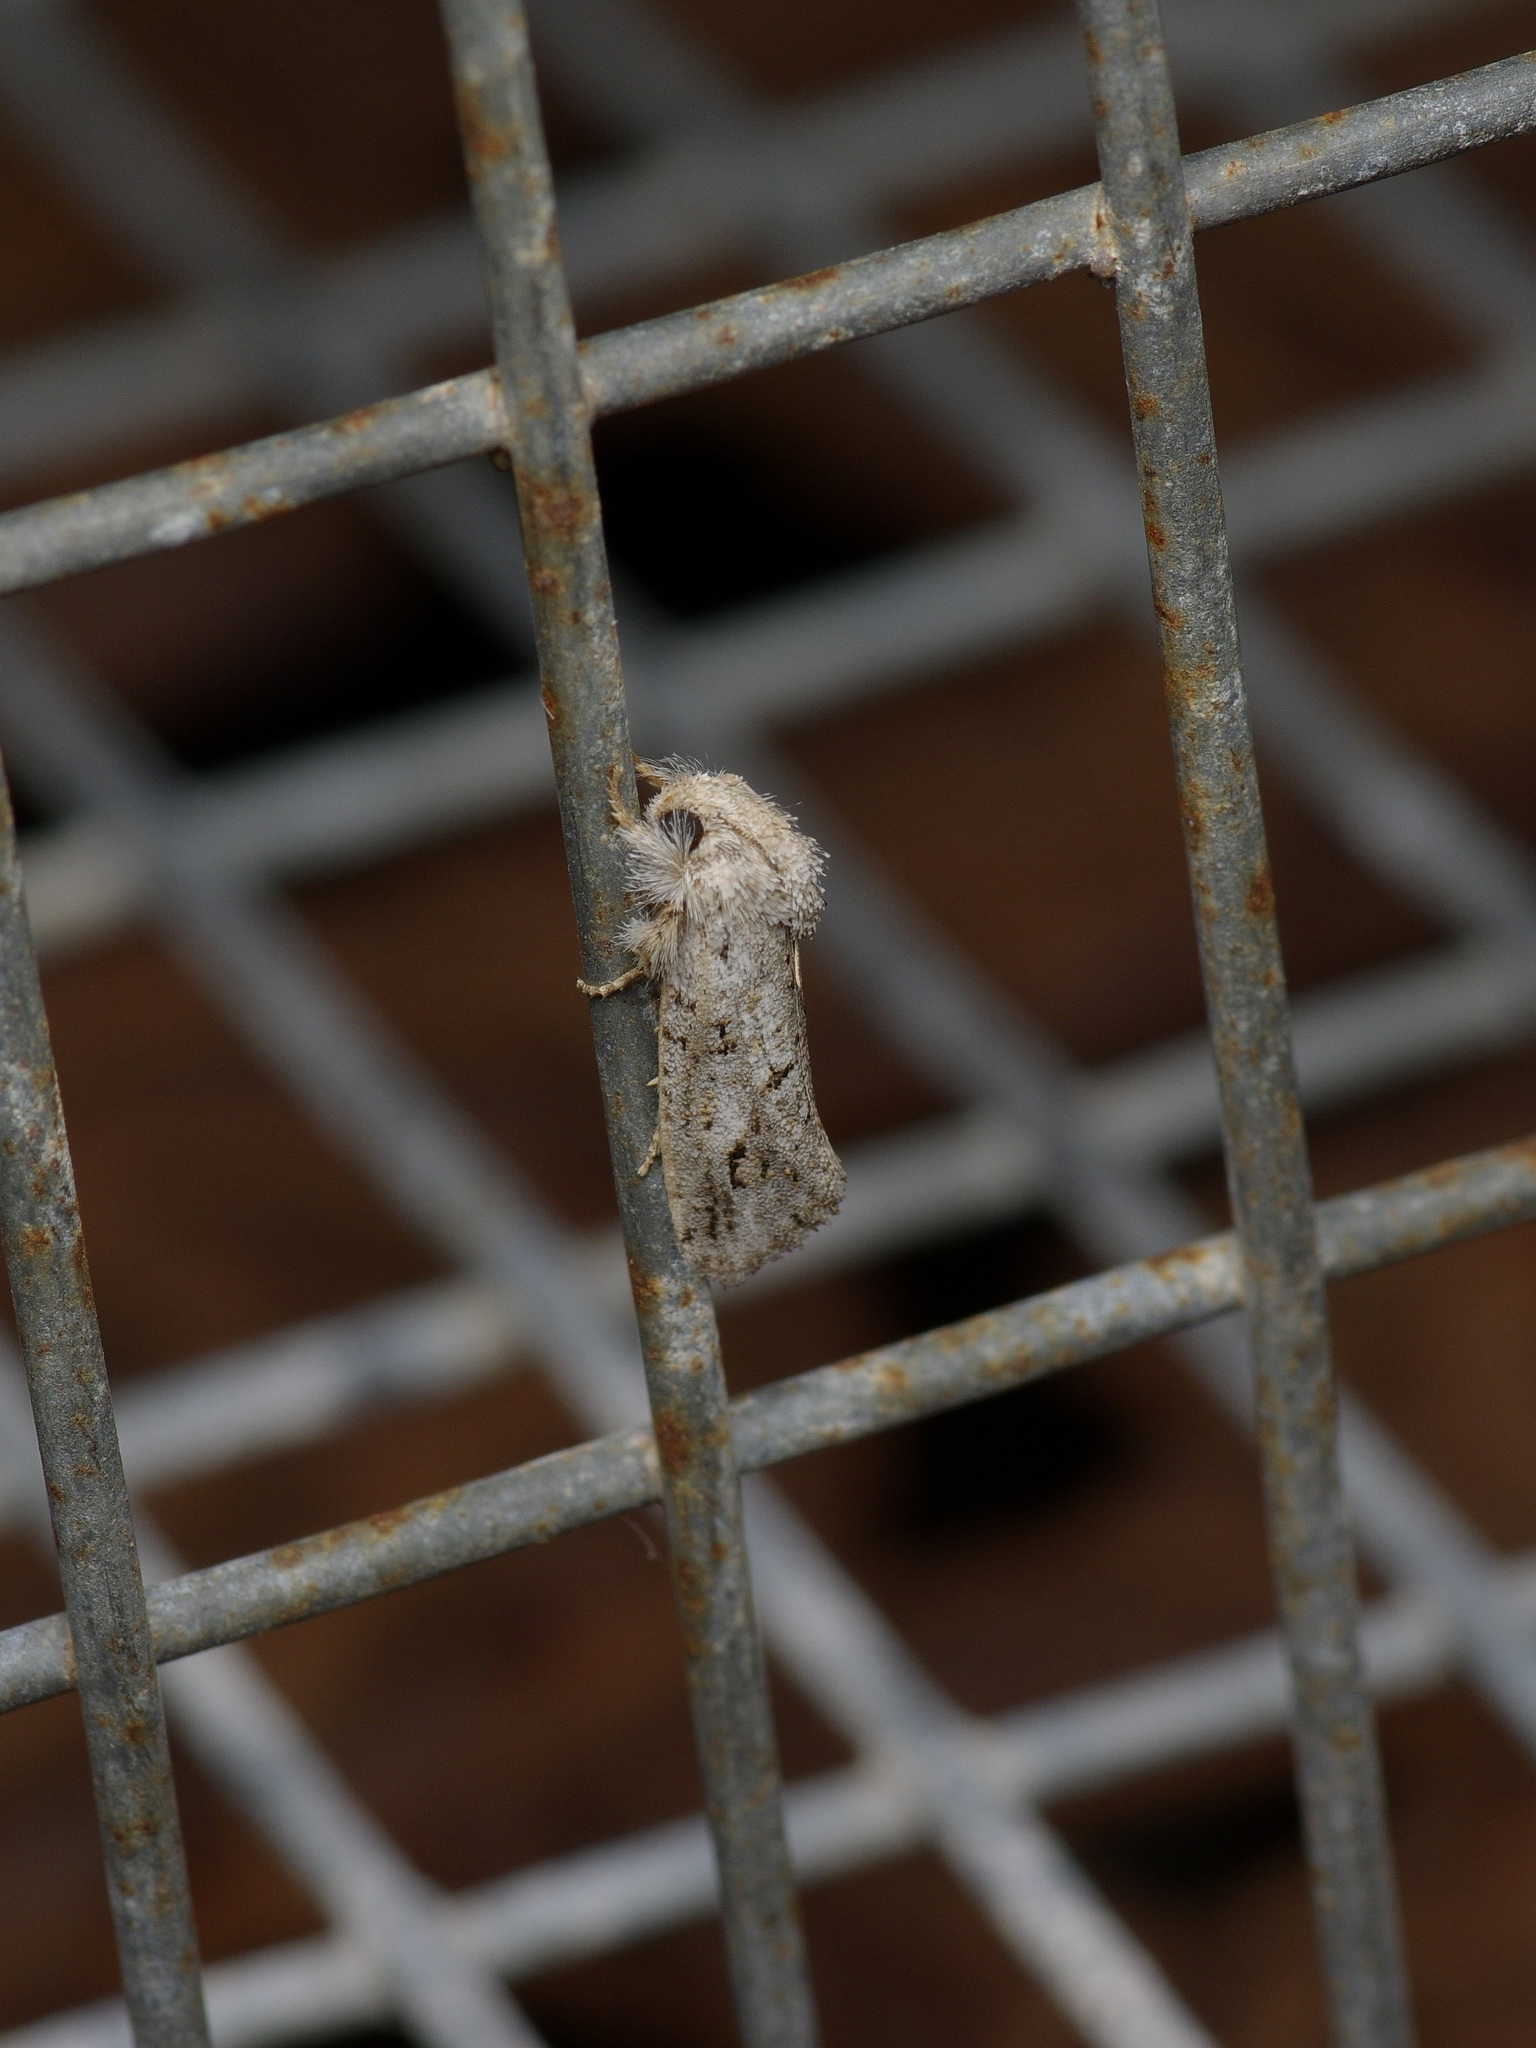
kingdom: Animalia
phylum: Arthropoda
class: Insecta
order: Lepidoptera
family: Tineidae
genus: Acrolophus
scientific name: Acrolophus griseus
